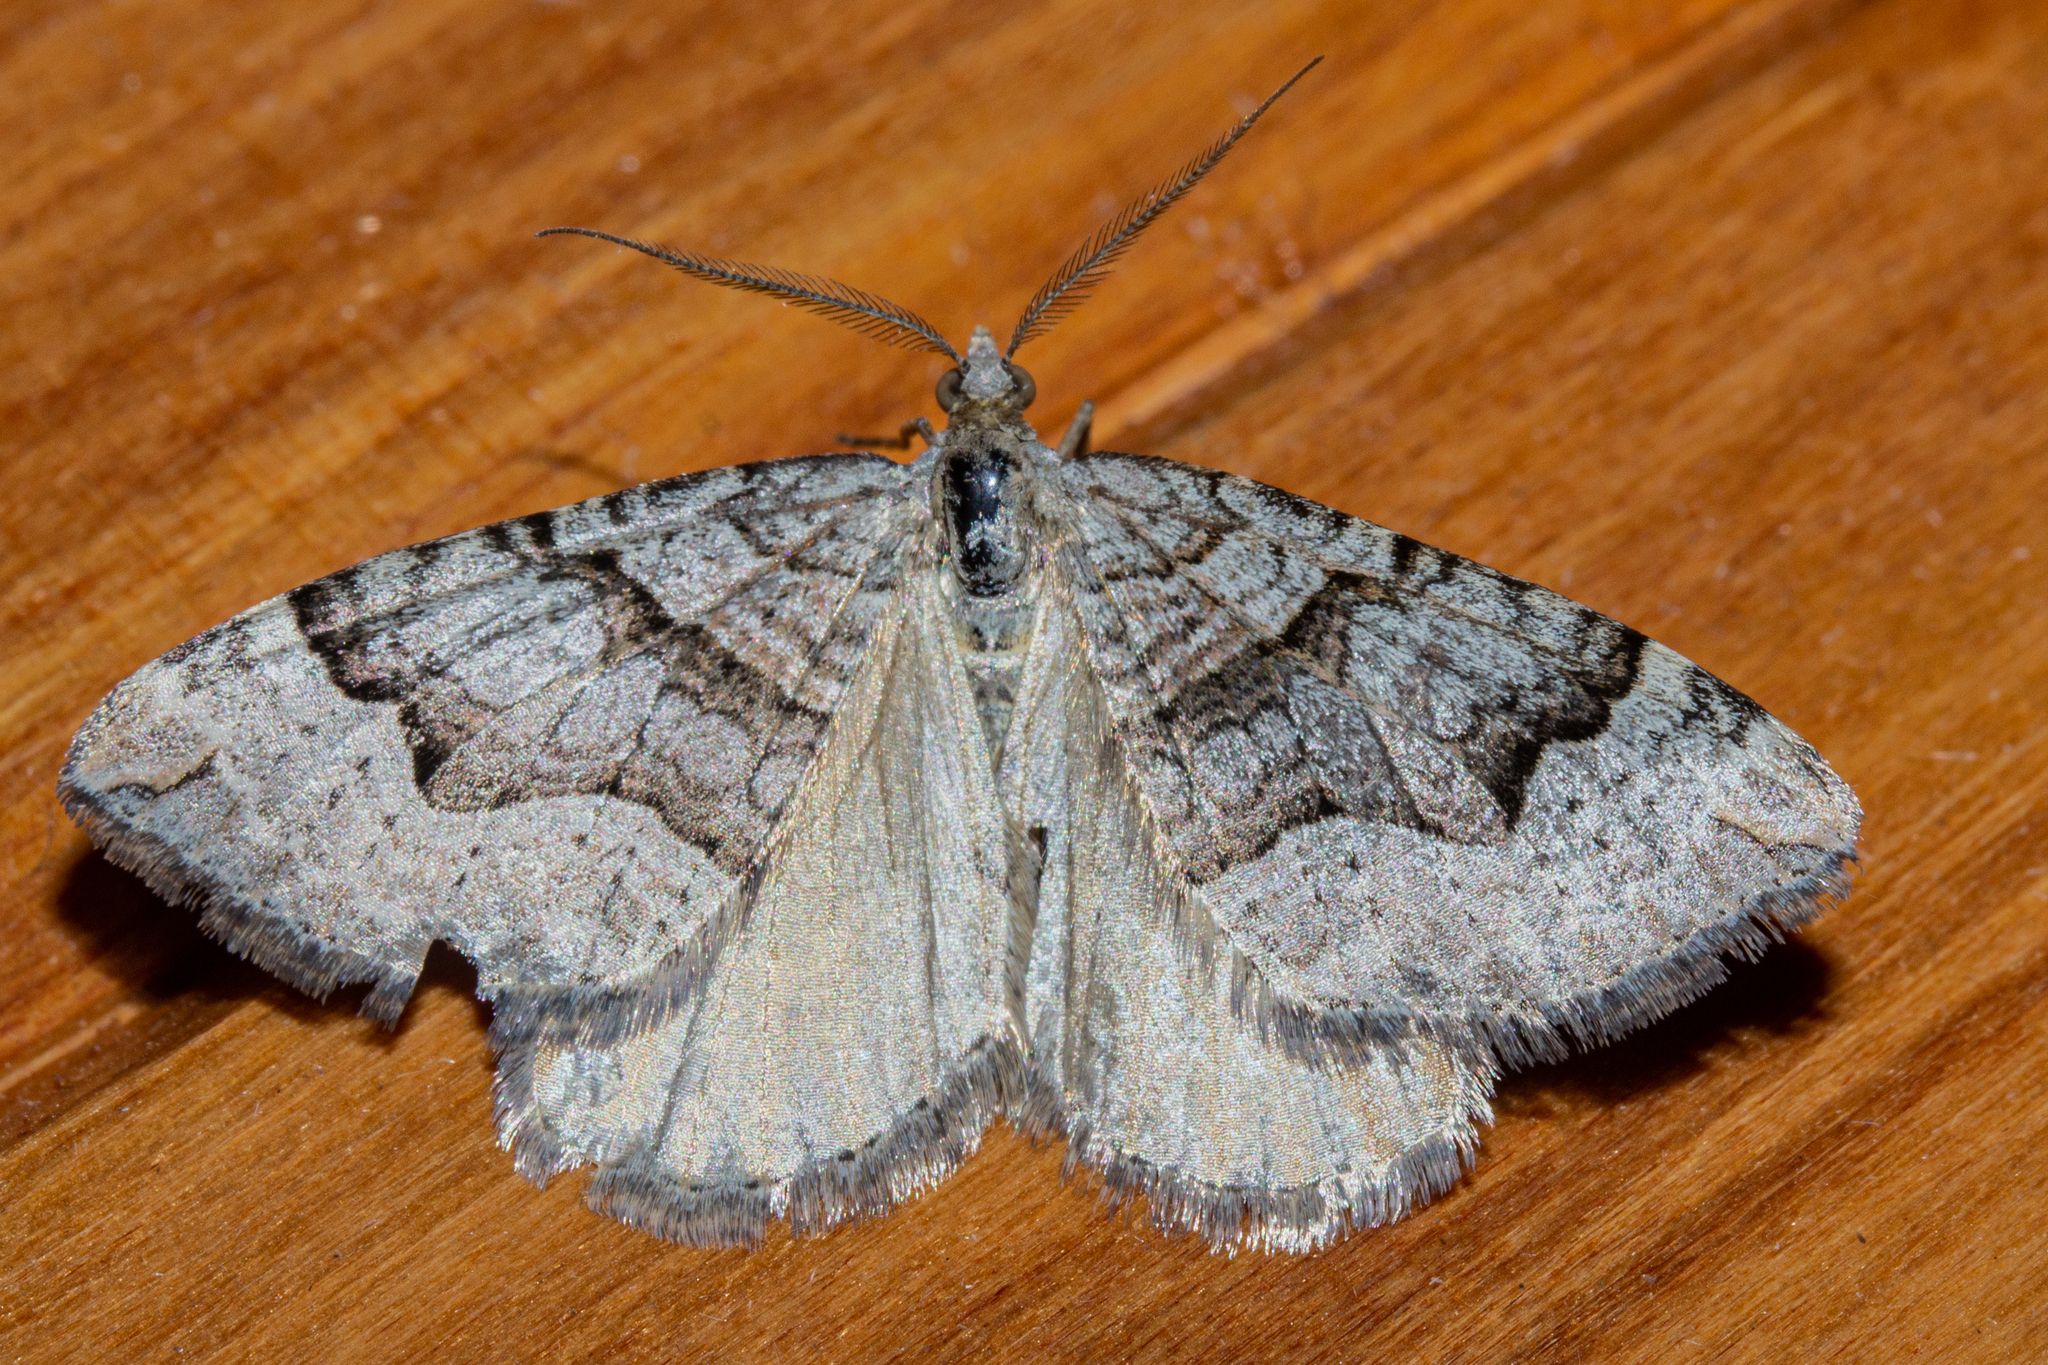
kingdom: Animalia
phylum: Arthropoda
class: Insecta
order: Lepidoptera
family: Geometridae
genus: Xanthorhoe
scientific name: Xanthorhoe orophylla
